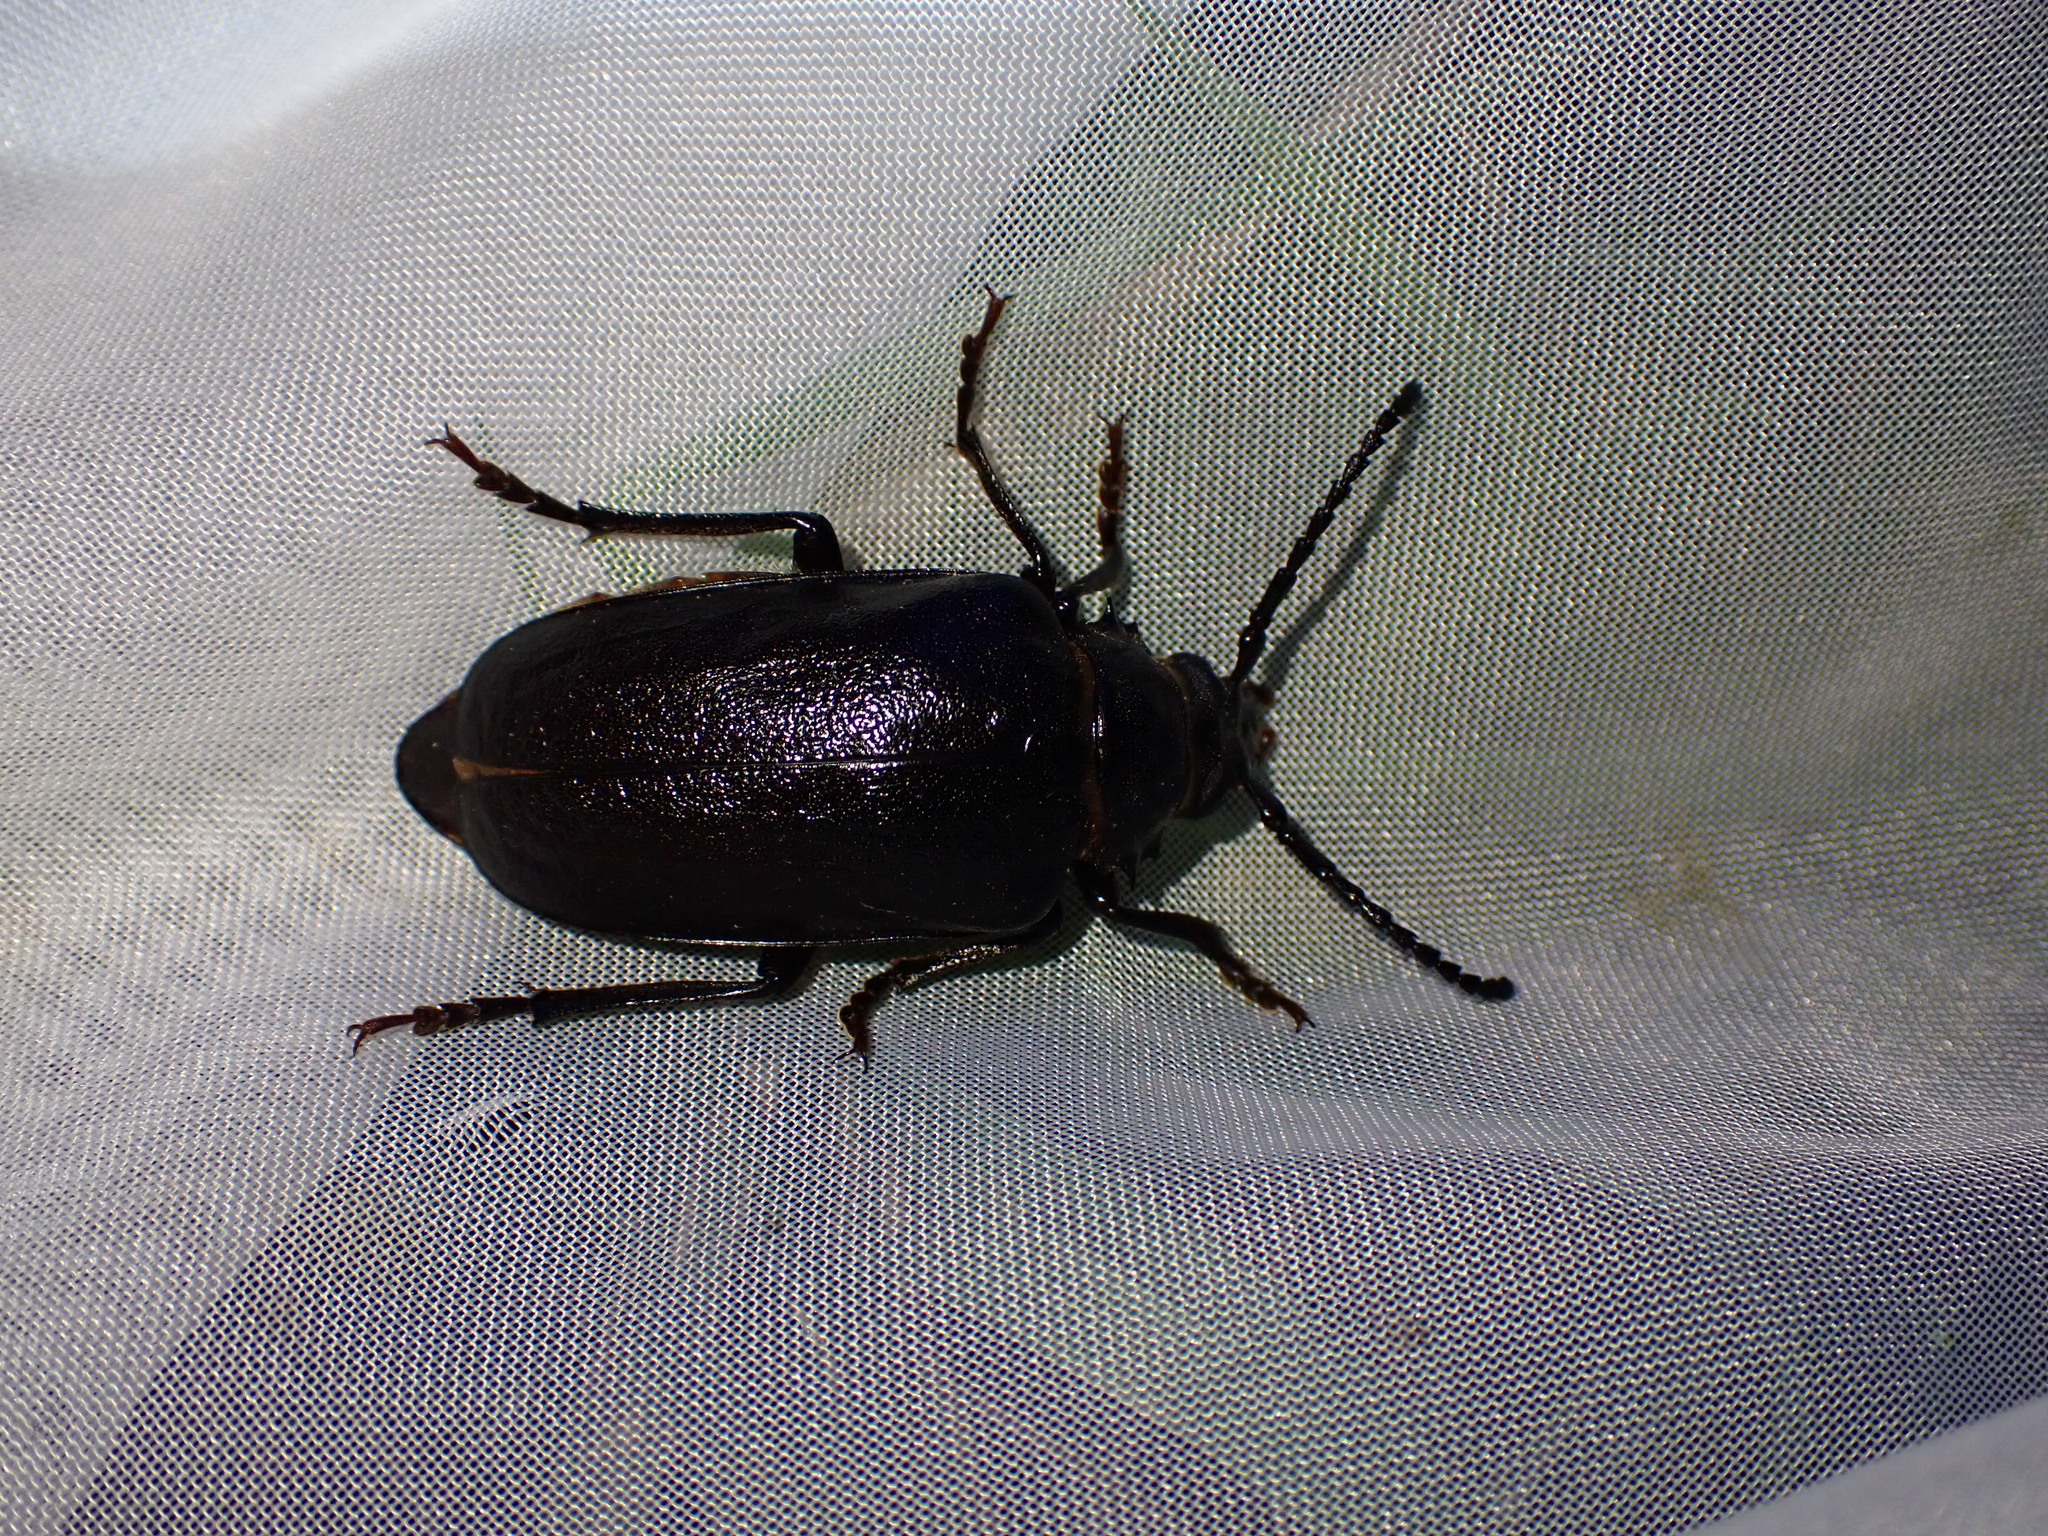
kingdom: Animalia
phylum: Arthropoda
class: Insecta
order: Coleoptera
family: Cerambycidae
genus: Prionus
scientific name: Prionus coriarius
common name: Tanner beetle
